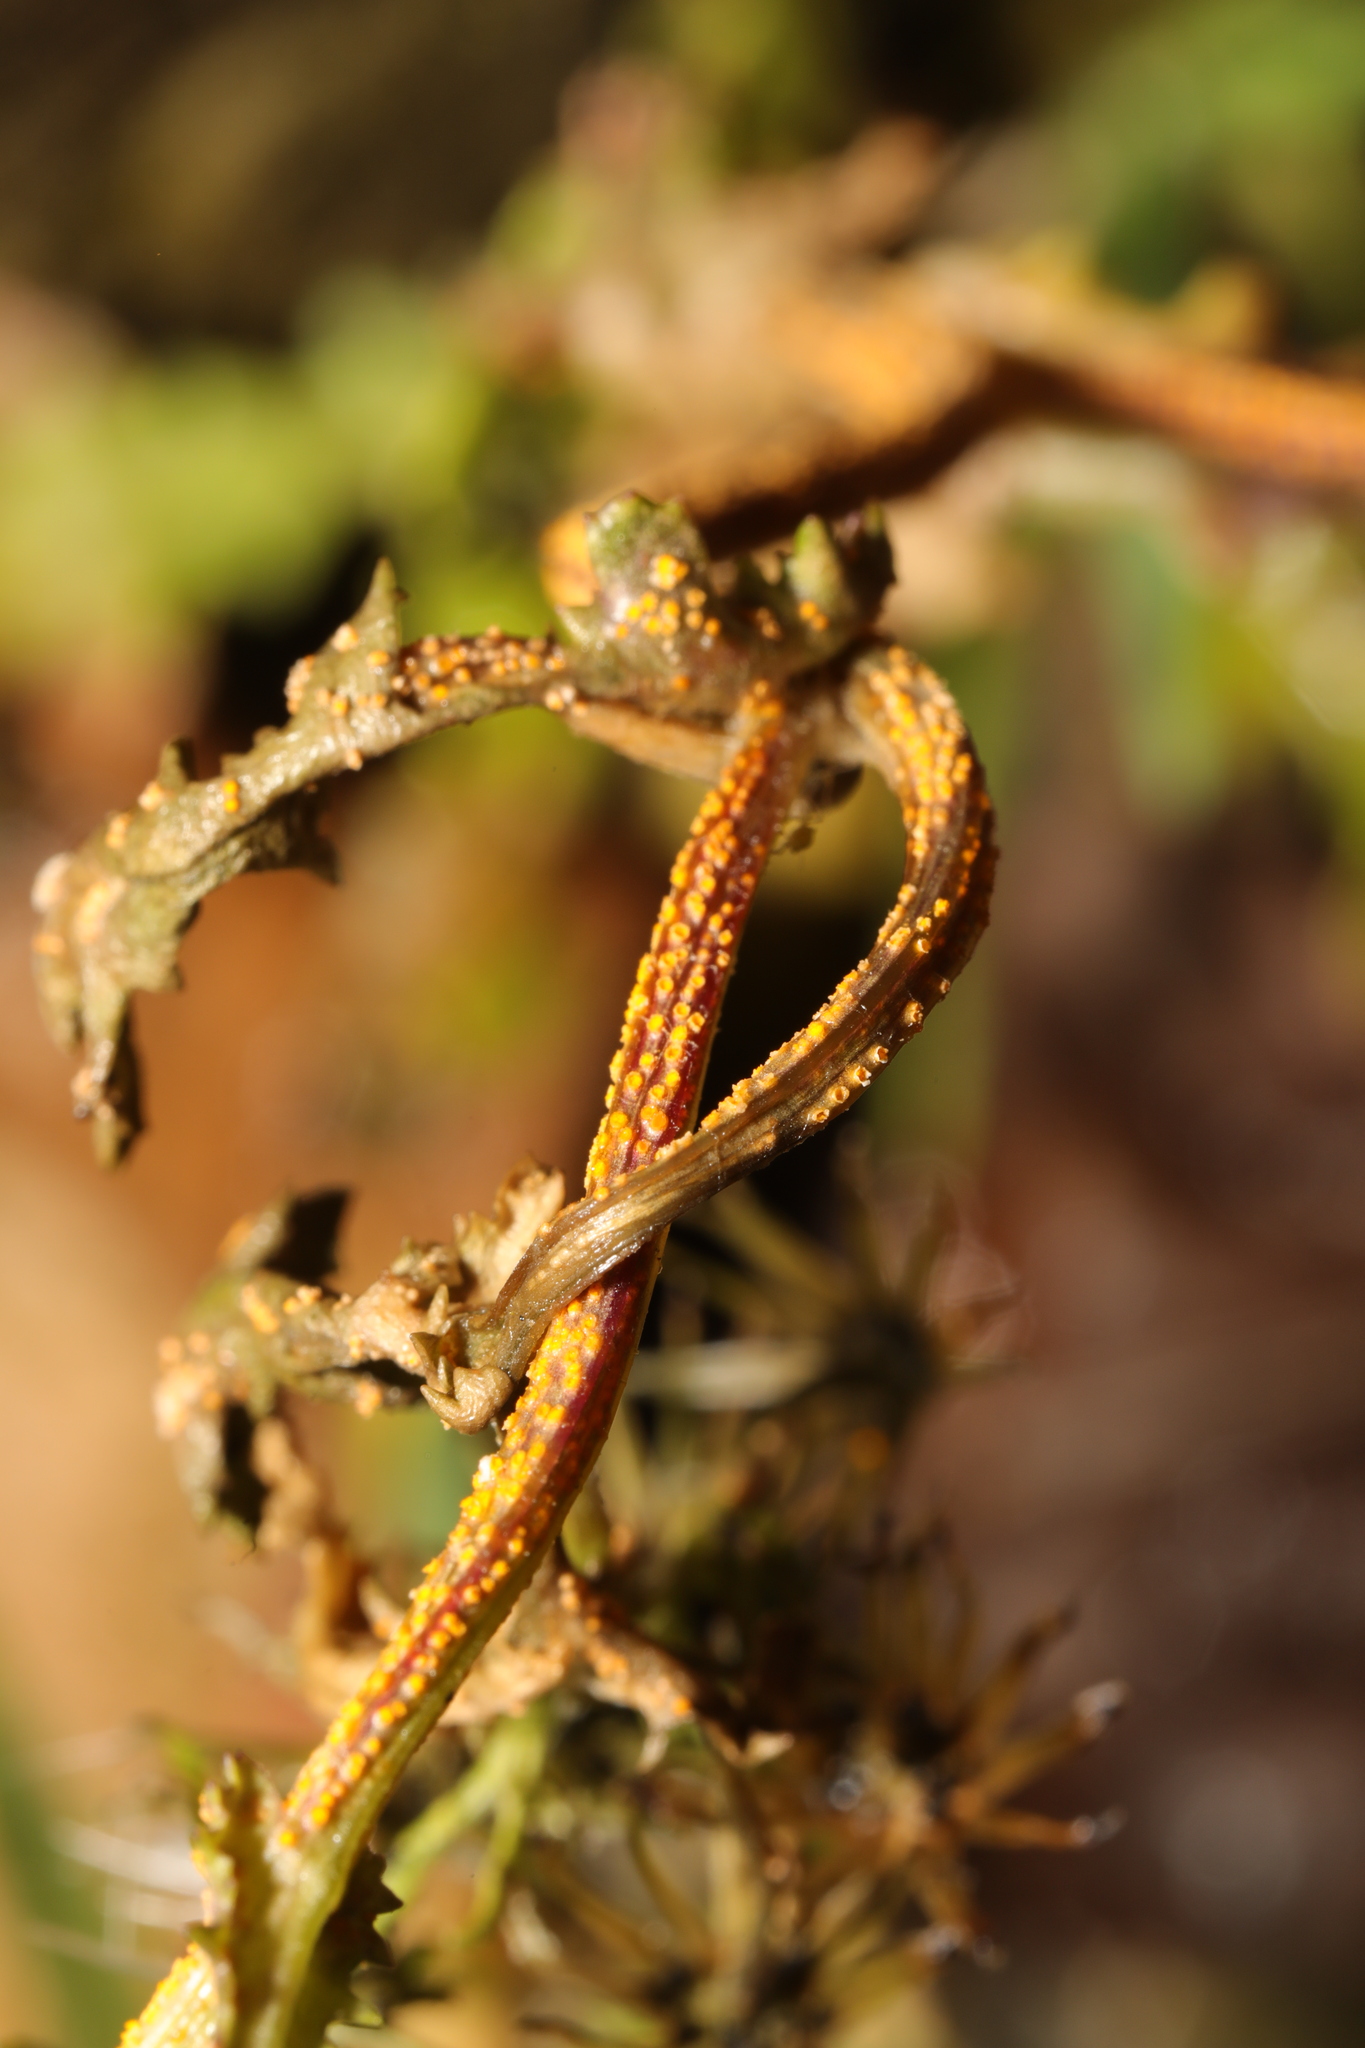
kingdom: Fungi
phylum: Basidiomycota
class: Pucciniomycetes
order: Pucciniales
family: Pucciniaceae
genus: Puccinia
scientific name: Puccinia lagenophorae
